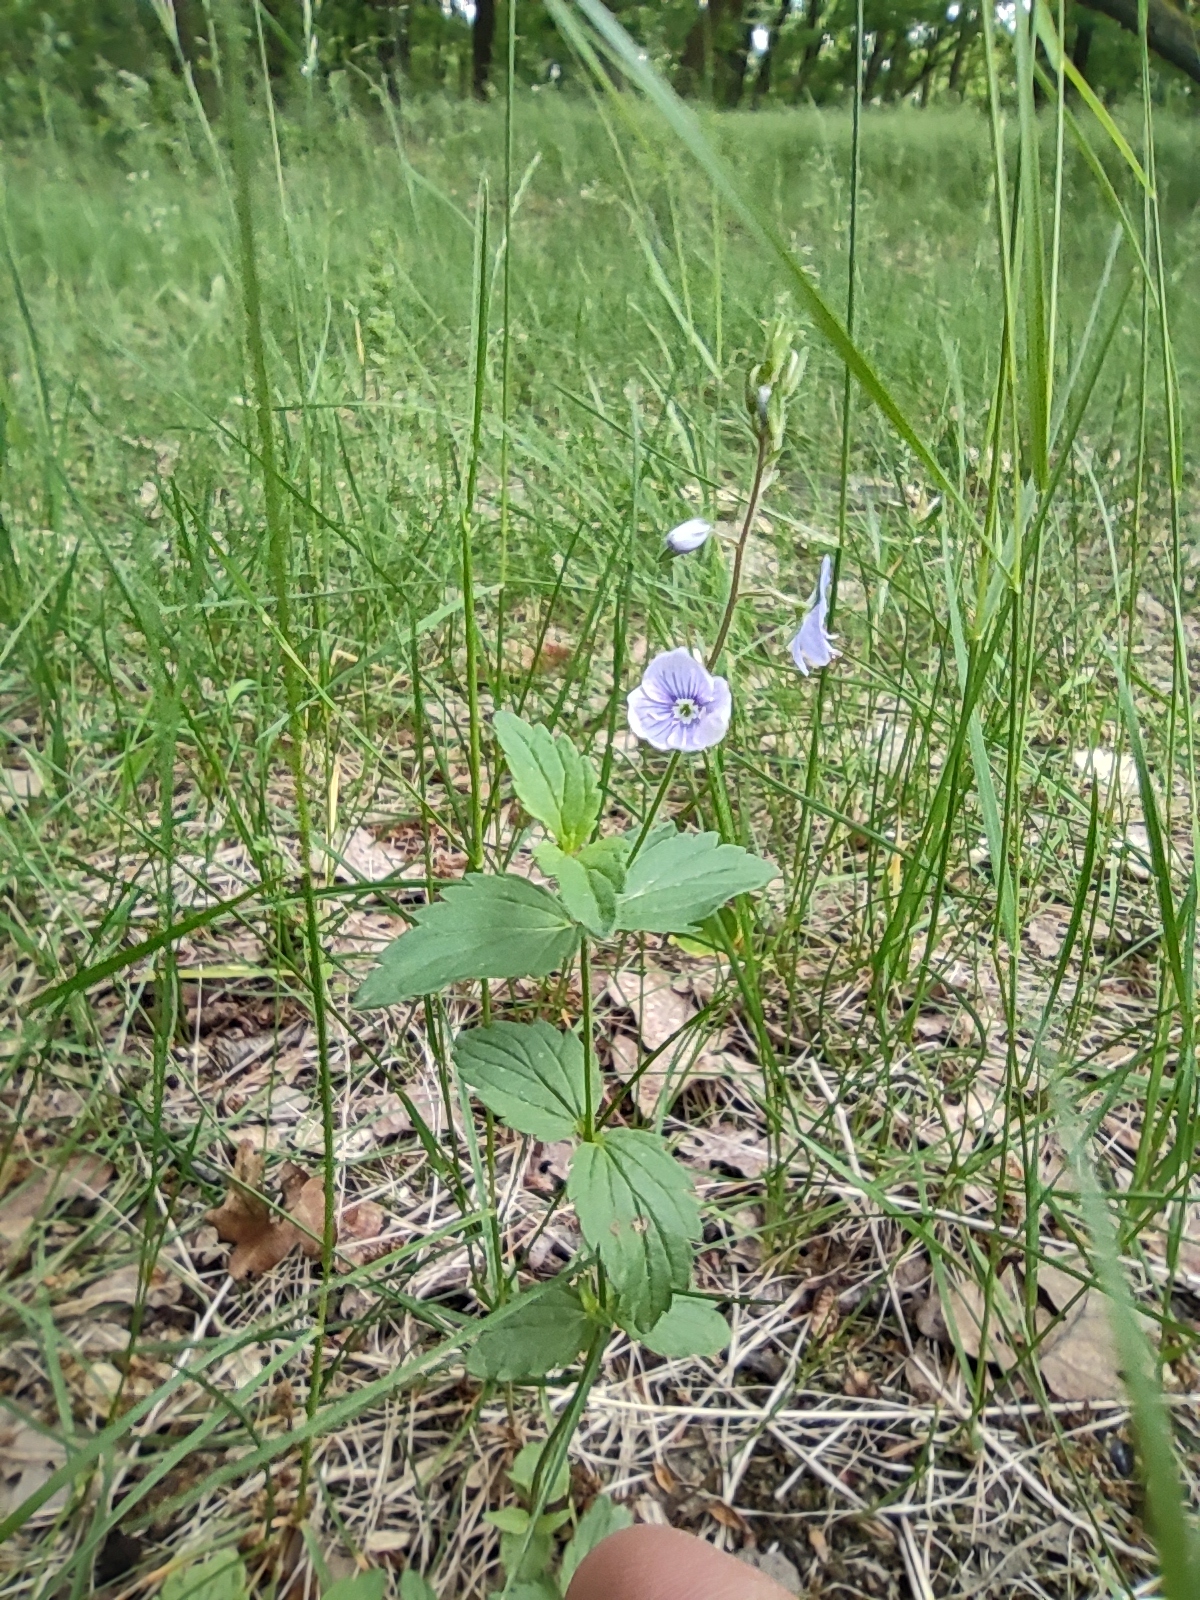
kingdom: Plantae
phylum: Tracheophyta
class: Magnoliopsida
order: Lamiales
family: Plantaginaceae
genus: Veronica
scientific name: Veronica chamaedrys
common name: Germander speedwell
